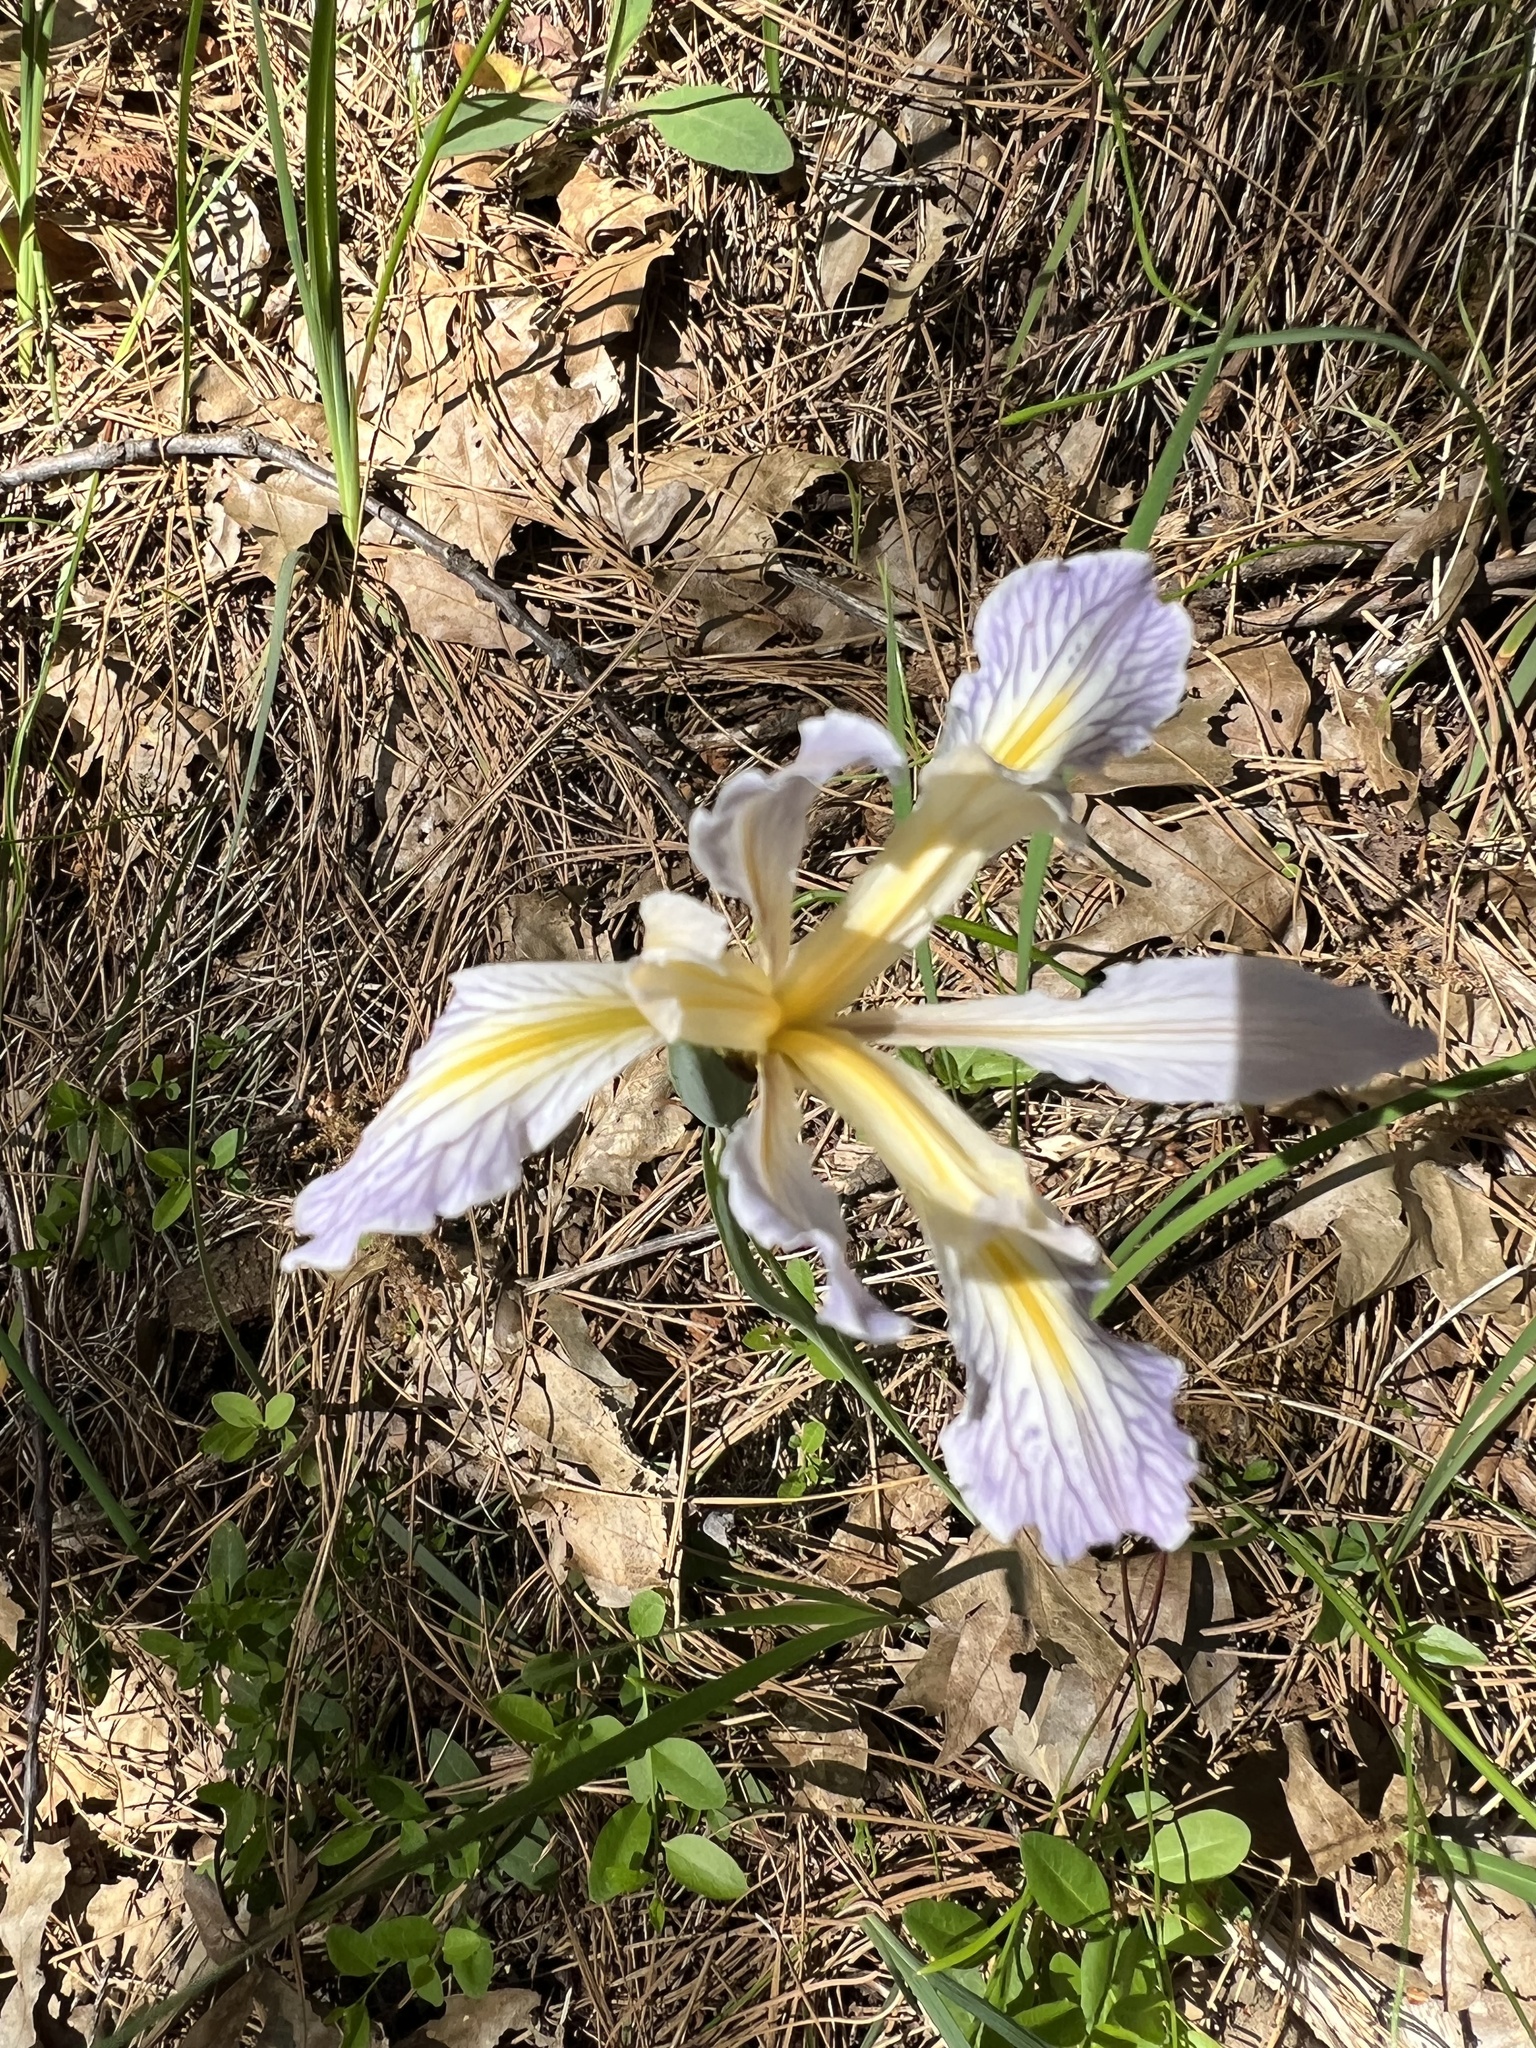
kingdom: Plantae
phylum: Tracheophyta
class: Liliopsida
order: Asparagales
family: Iridaceae
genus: Iris
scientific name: Iris macrosiphon
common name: Ground iris
